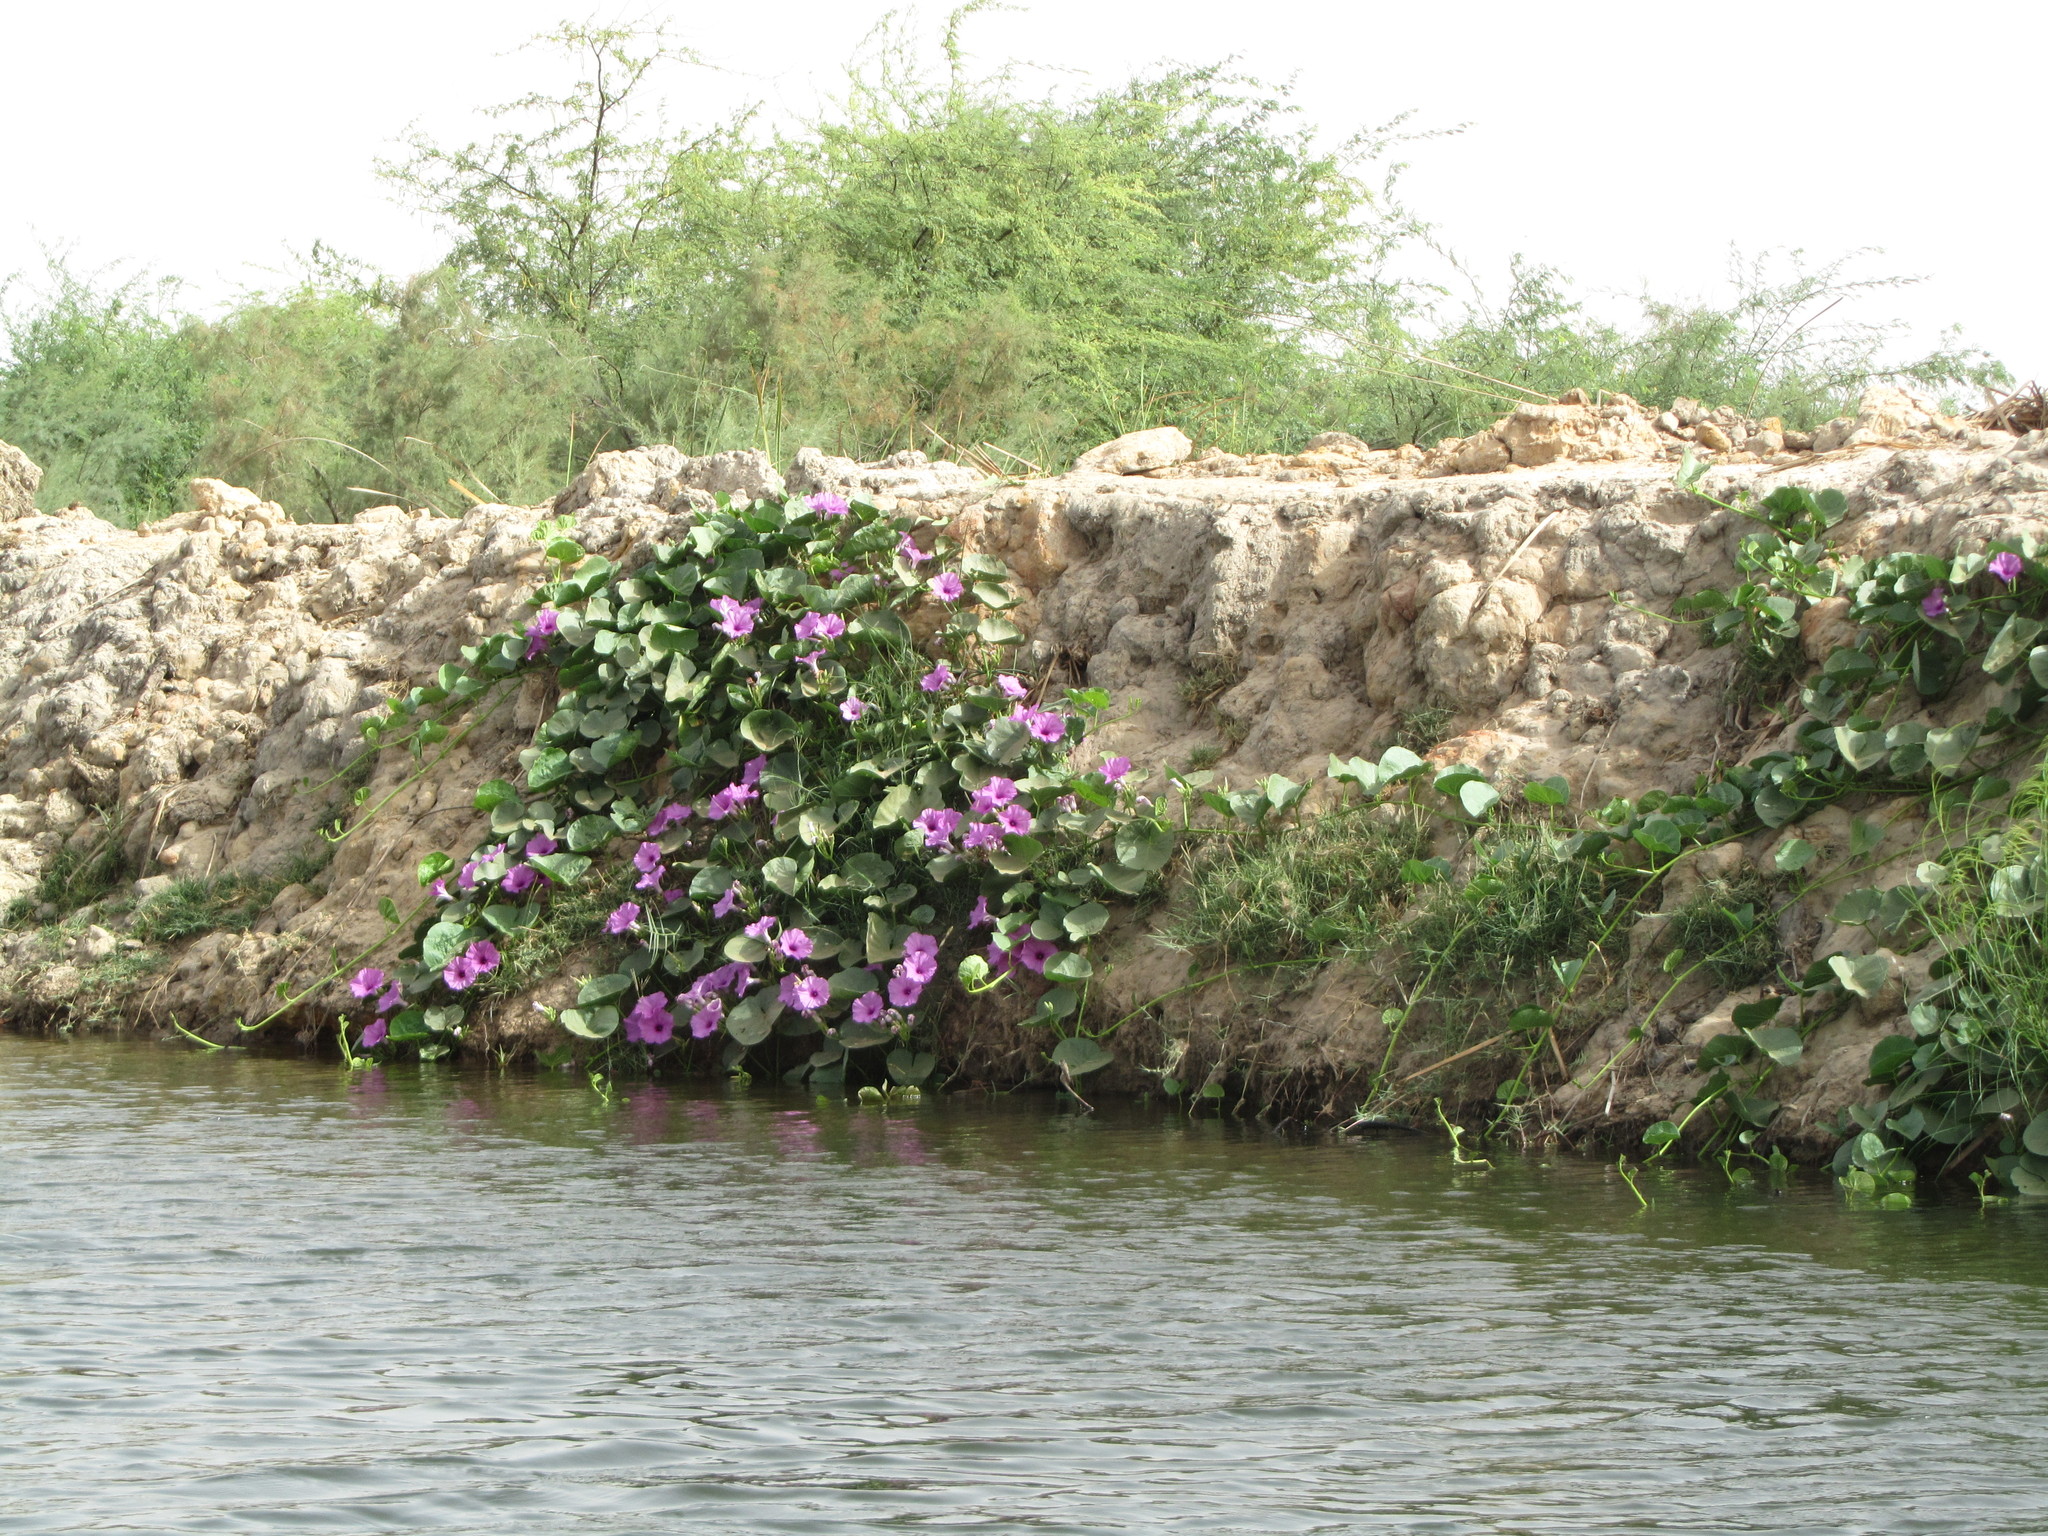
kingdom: Plantae
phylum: Tracheophyta
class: Magnoliopsida
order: Solanales
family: Convolvulaceae
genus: Ipomoea
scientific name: Ipomoea asarifolia
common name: Ginger-leaf morning-glory
